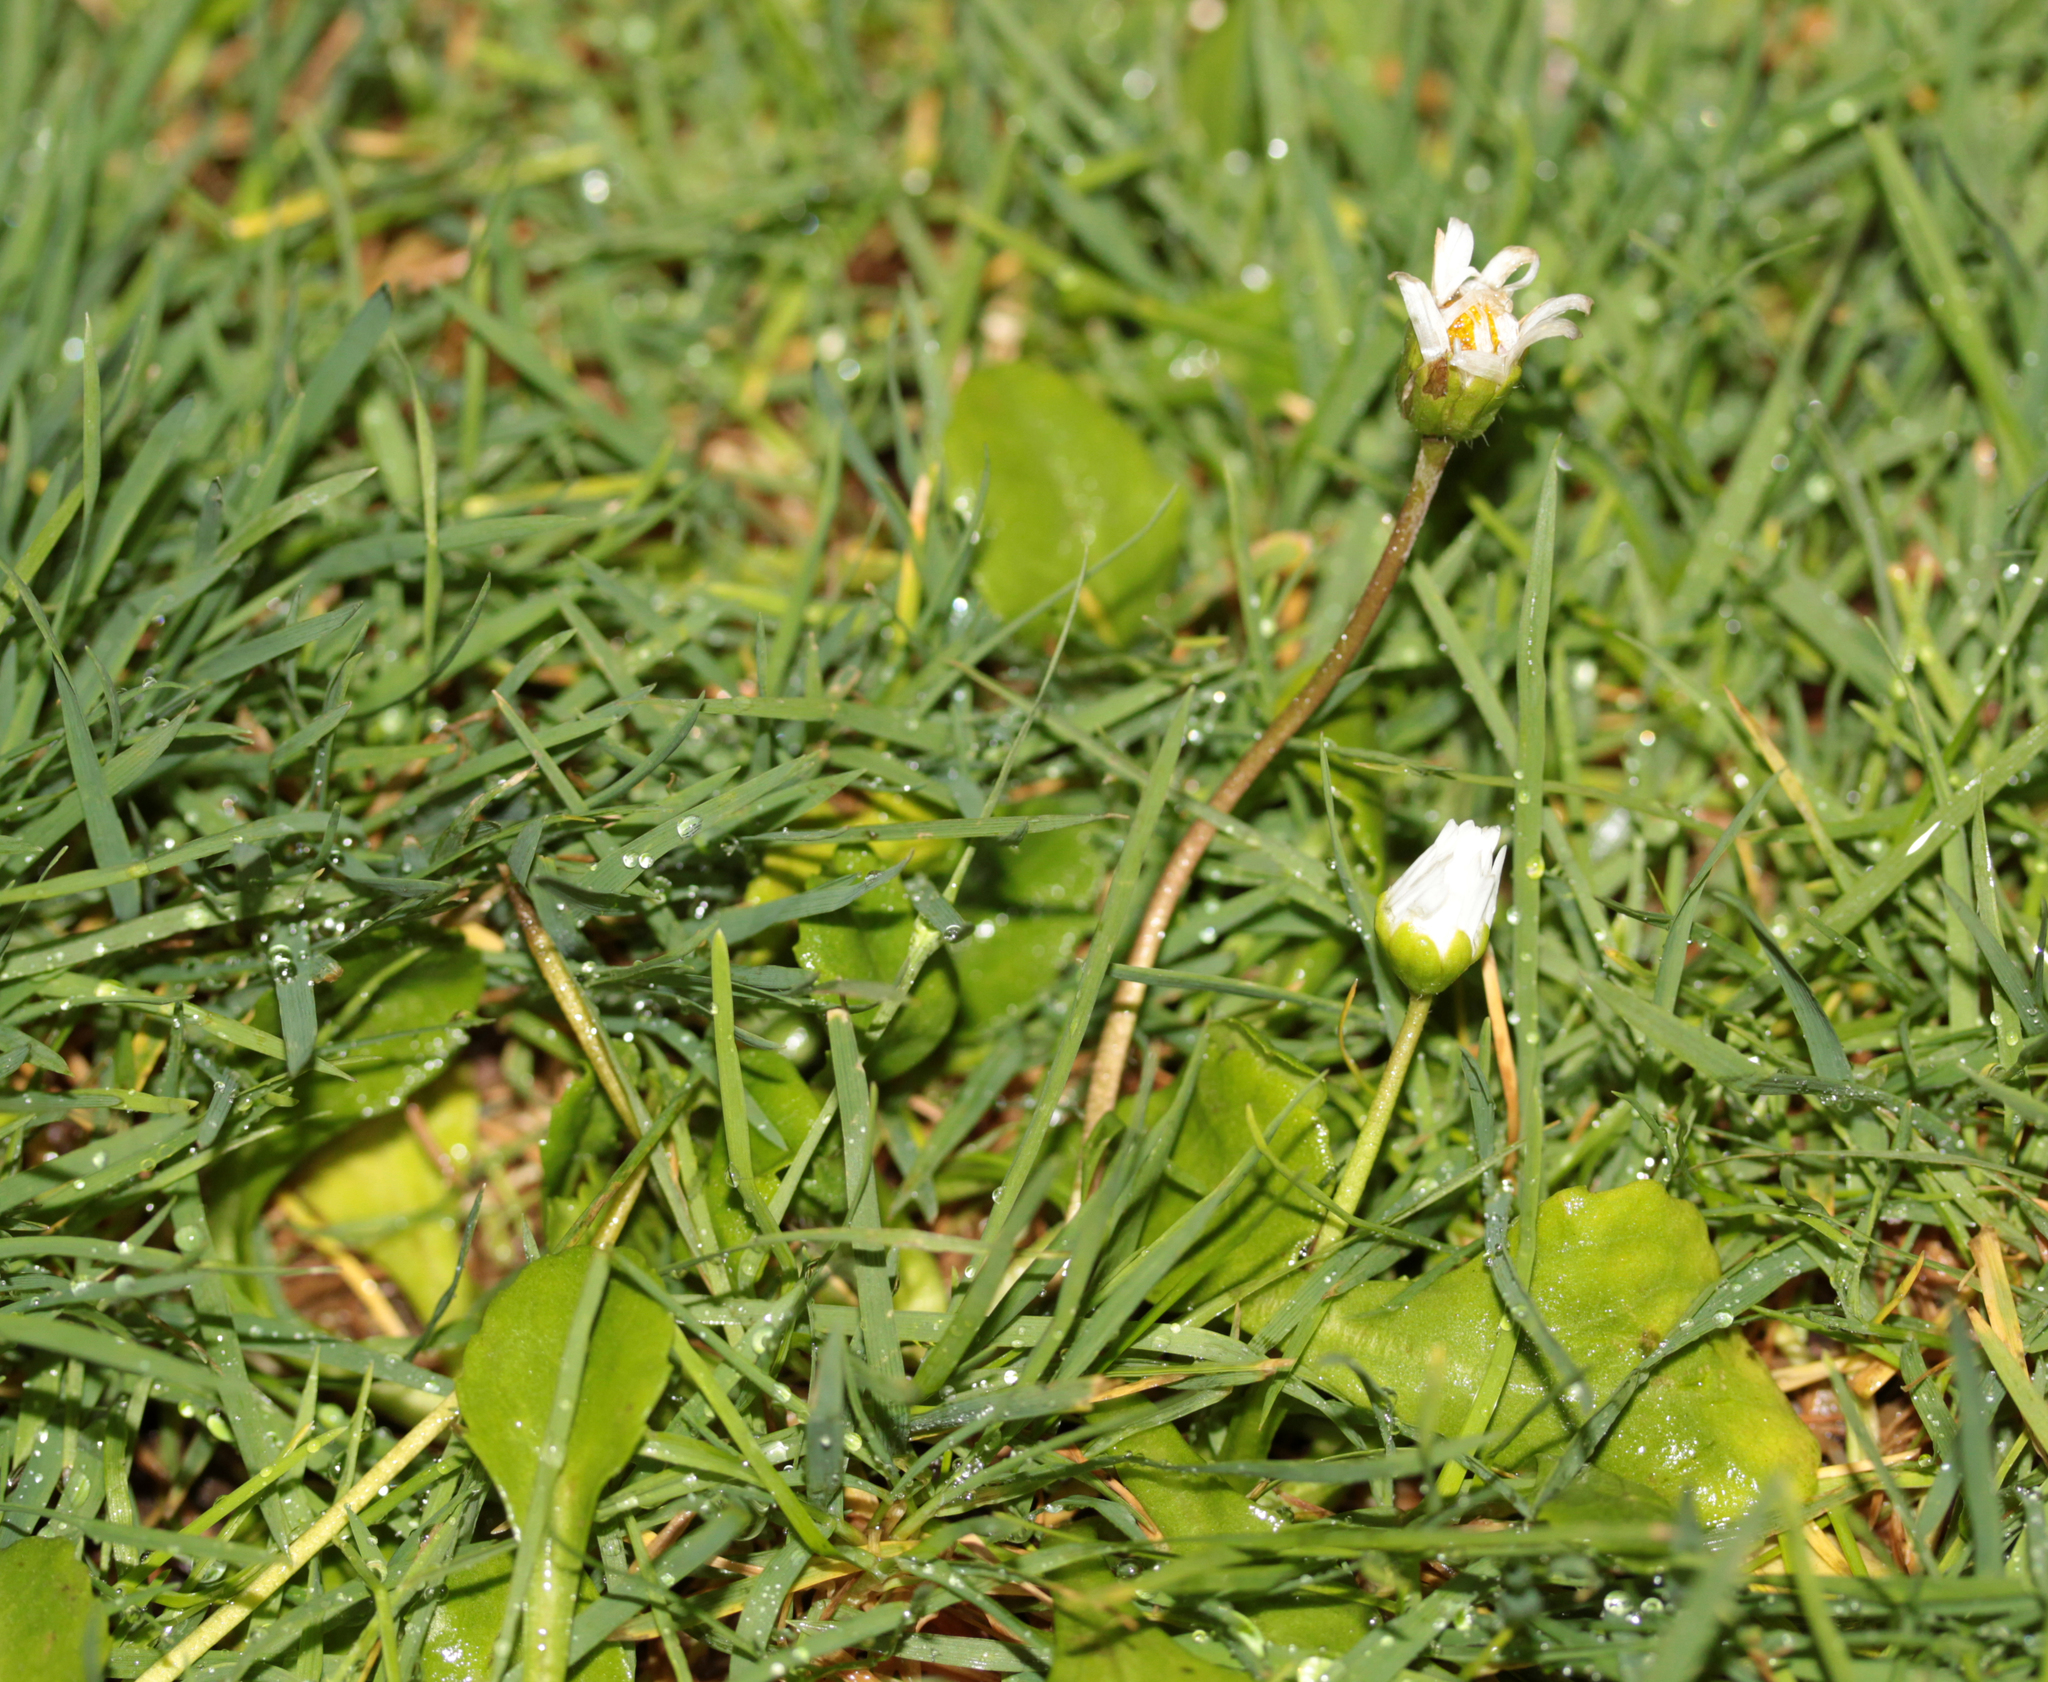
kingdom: Plantae
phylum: Tracheophyta
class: Magnoliopsida
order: Asterales
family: Asteraceae
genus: Bellis
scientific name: Bellis perennis
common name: Lawndaisy
